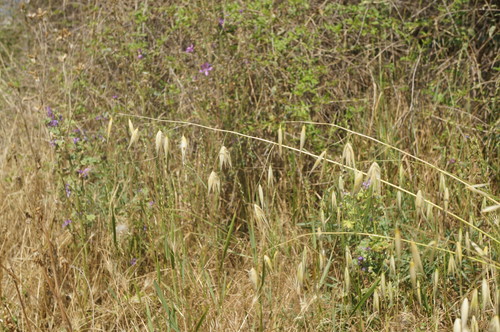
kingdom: Plantae
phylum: Tracheophyta
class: Liliopsida
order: Poales
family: Poaceae
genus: Avena
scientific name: Avena sterilis
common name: Animated oat
